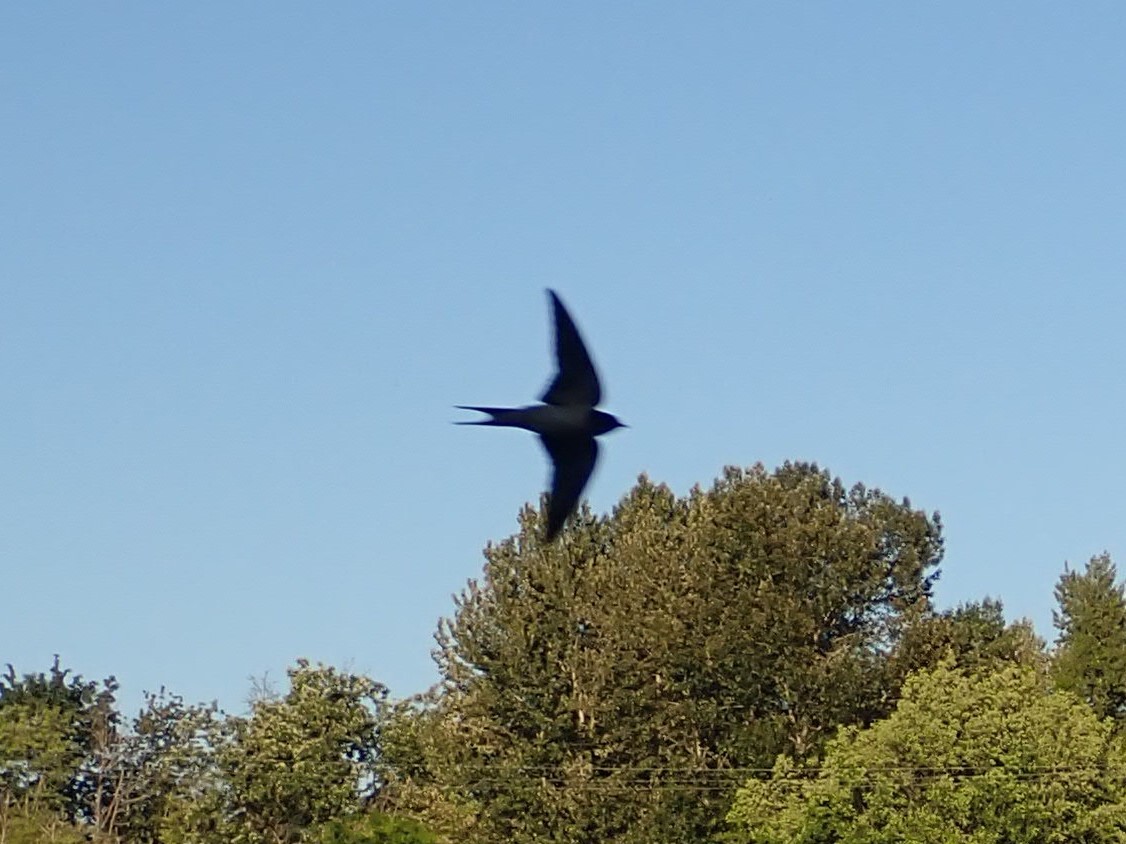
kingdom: Animalia
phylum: Chordata
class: Aves
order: Passeriformes
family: Hirundinidae
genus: Hirundo
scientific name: Hirundo rustica
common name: Barn swallow
